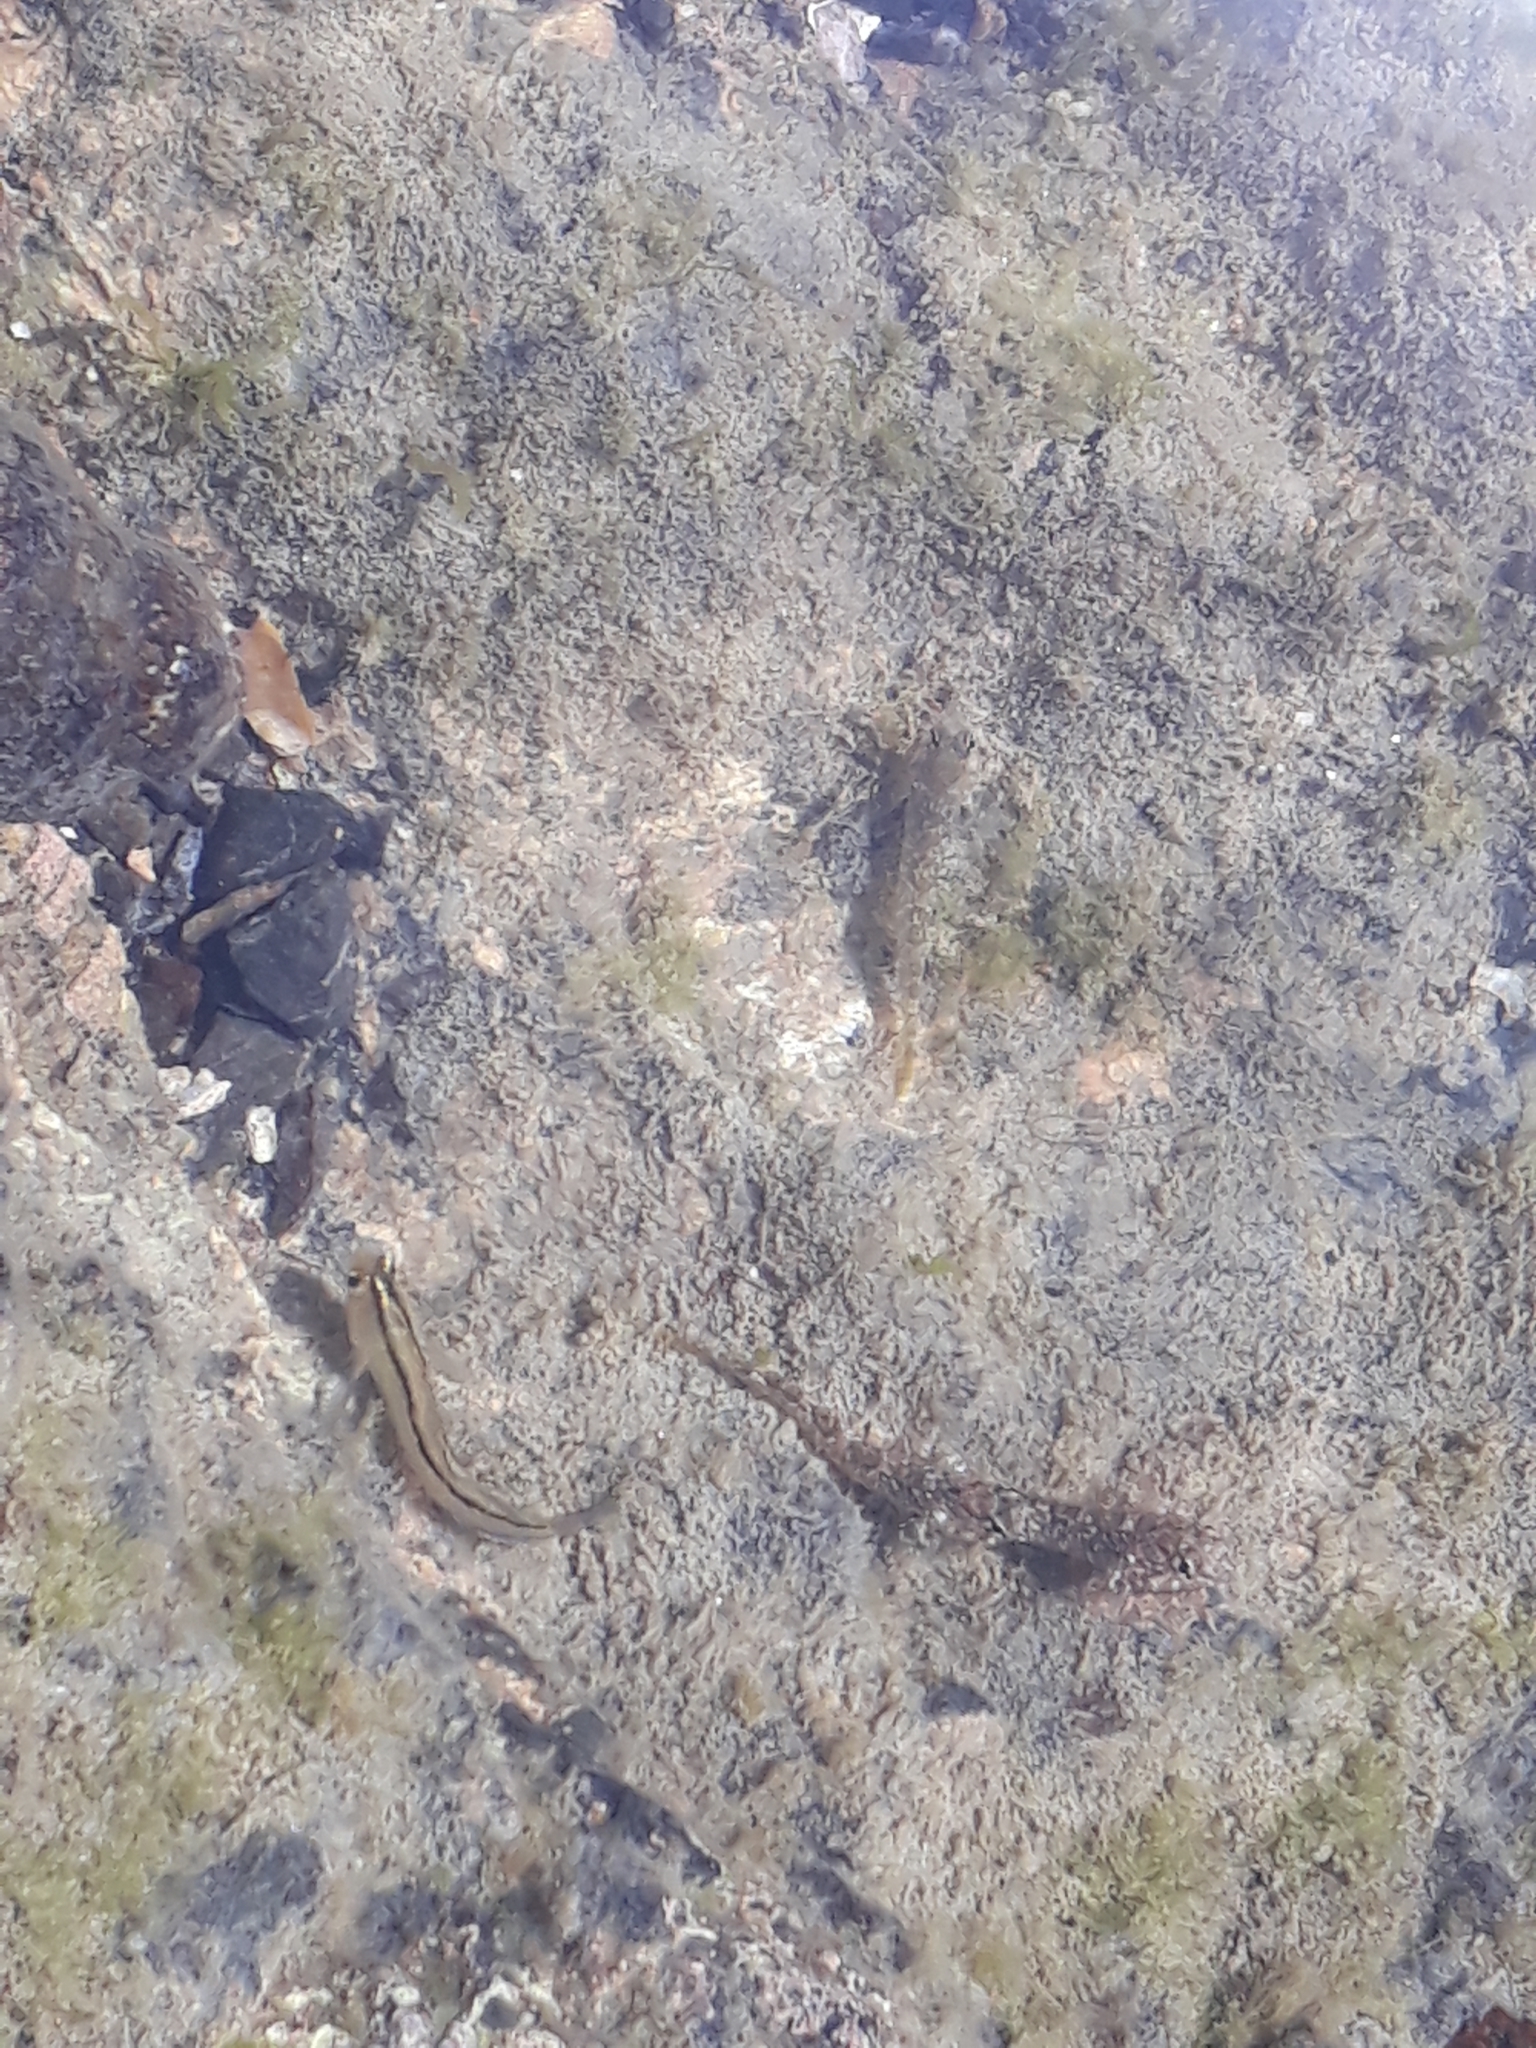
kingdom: Animalia
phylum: Chordata
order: Perciformes
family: Tripterygiidae
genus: Forsterygion
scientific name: Forsterygion lapillum
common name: Common triplefin
